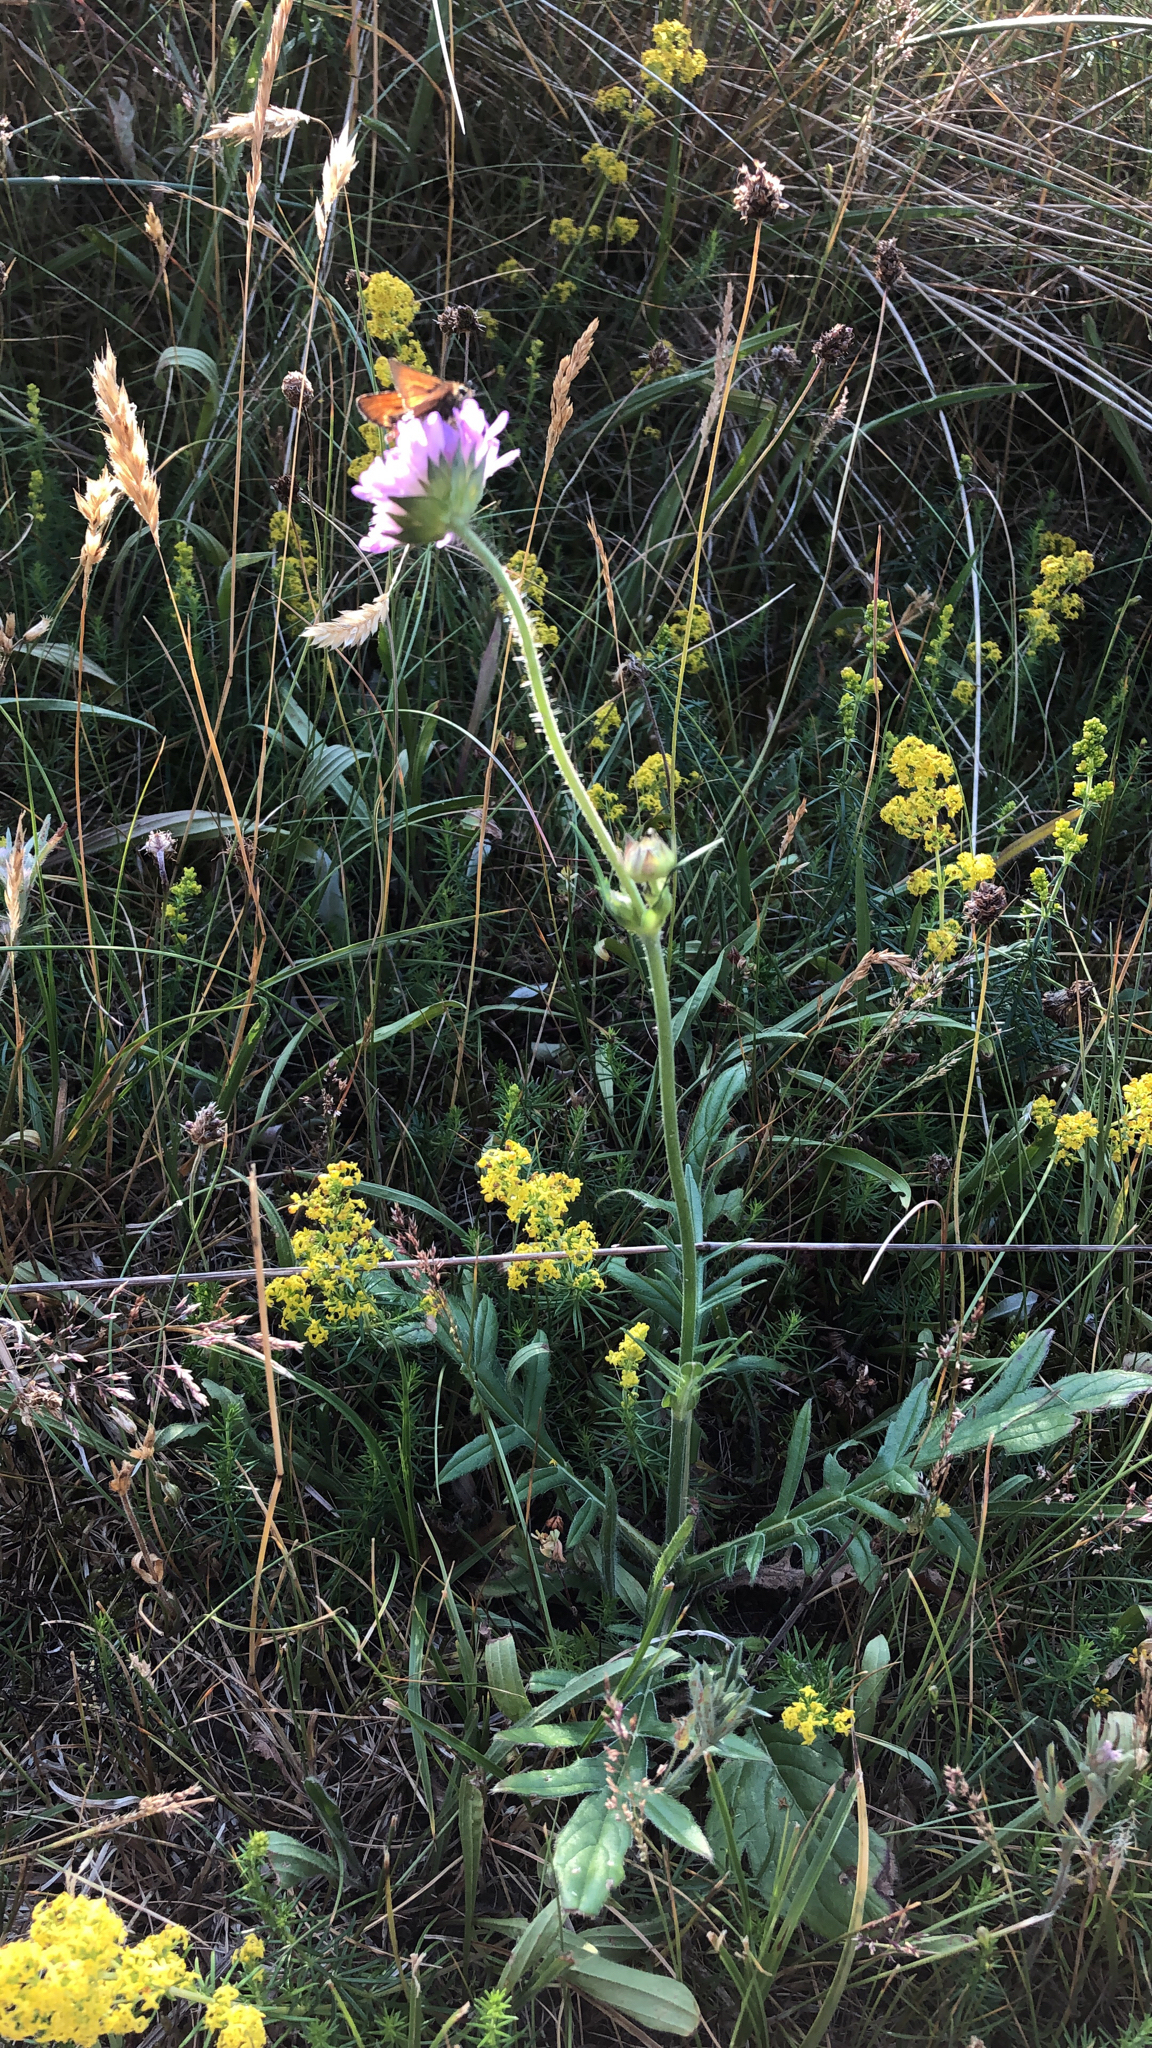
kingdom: Plantae
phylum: Tracheophyta
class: Magnoliopsida
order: Dipsacales
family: Caprifoliaceae
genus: Knautia
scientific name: Knautia arvensis
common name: Field scabiosa
